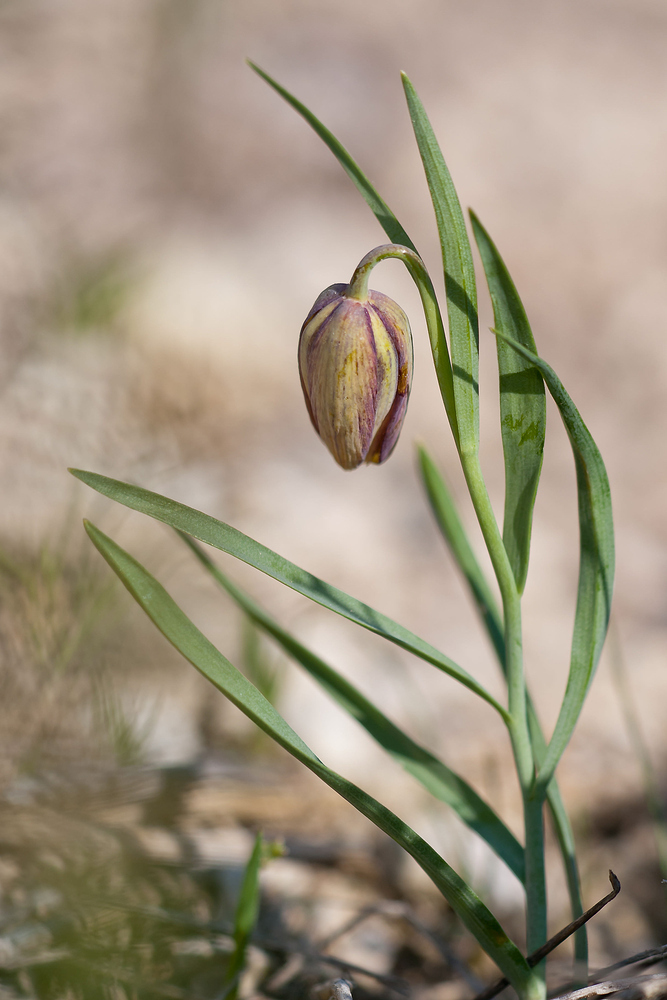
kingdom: Plantae
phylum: Tracheophyta
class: Liliopsida
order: Liliales
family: Liliaceae
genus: Fritillaria
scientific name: Fritillaria lusitanica
